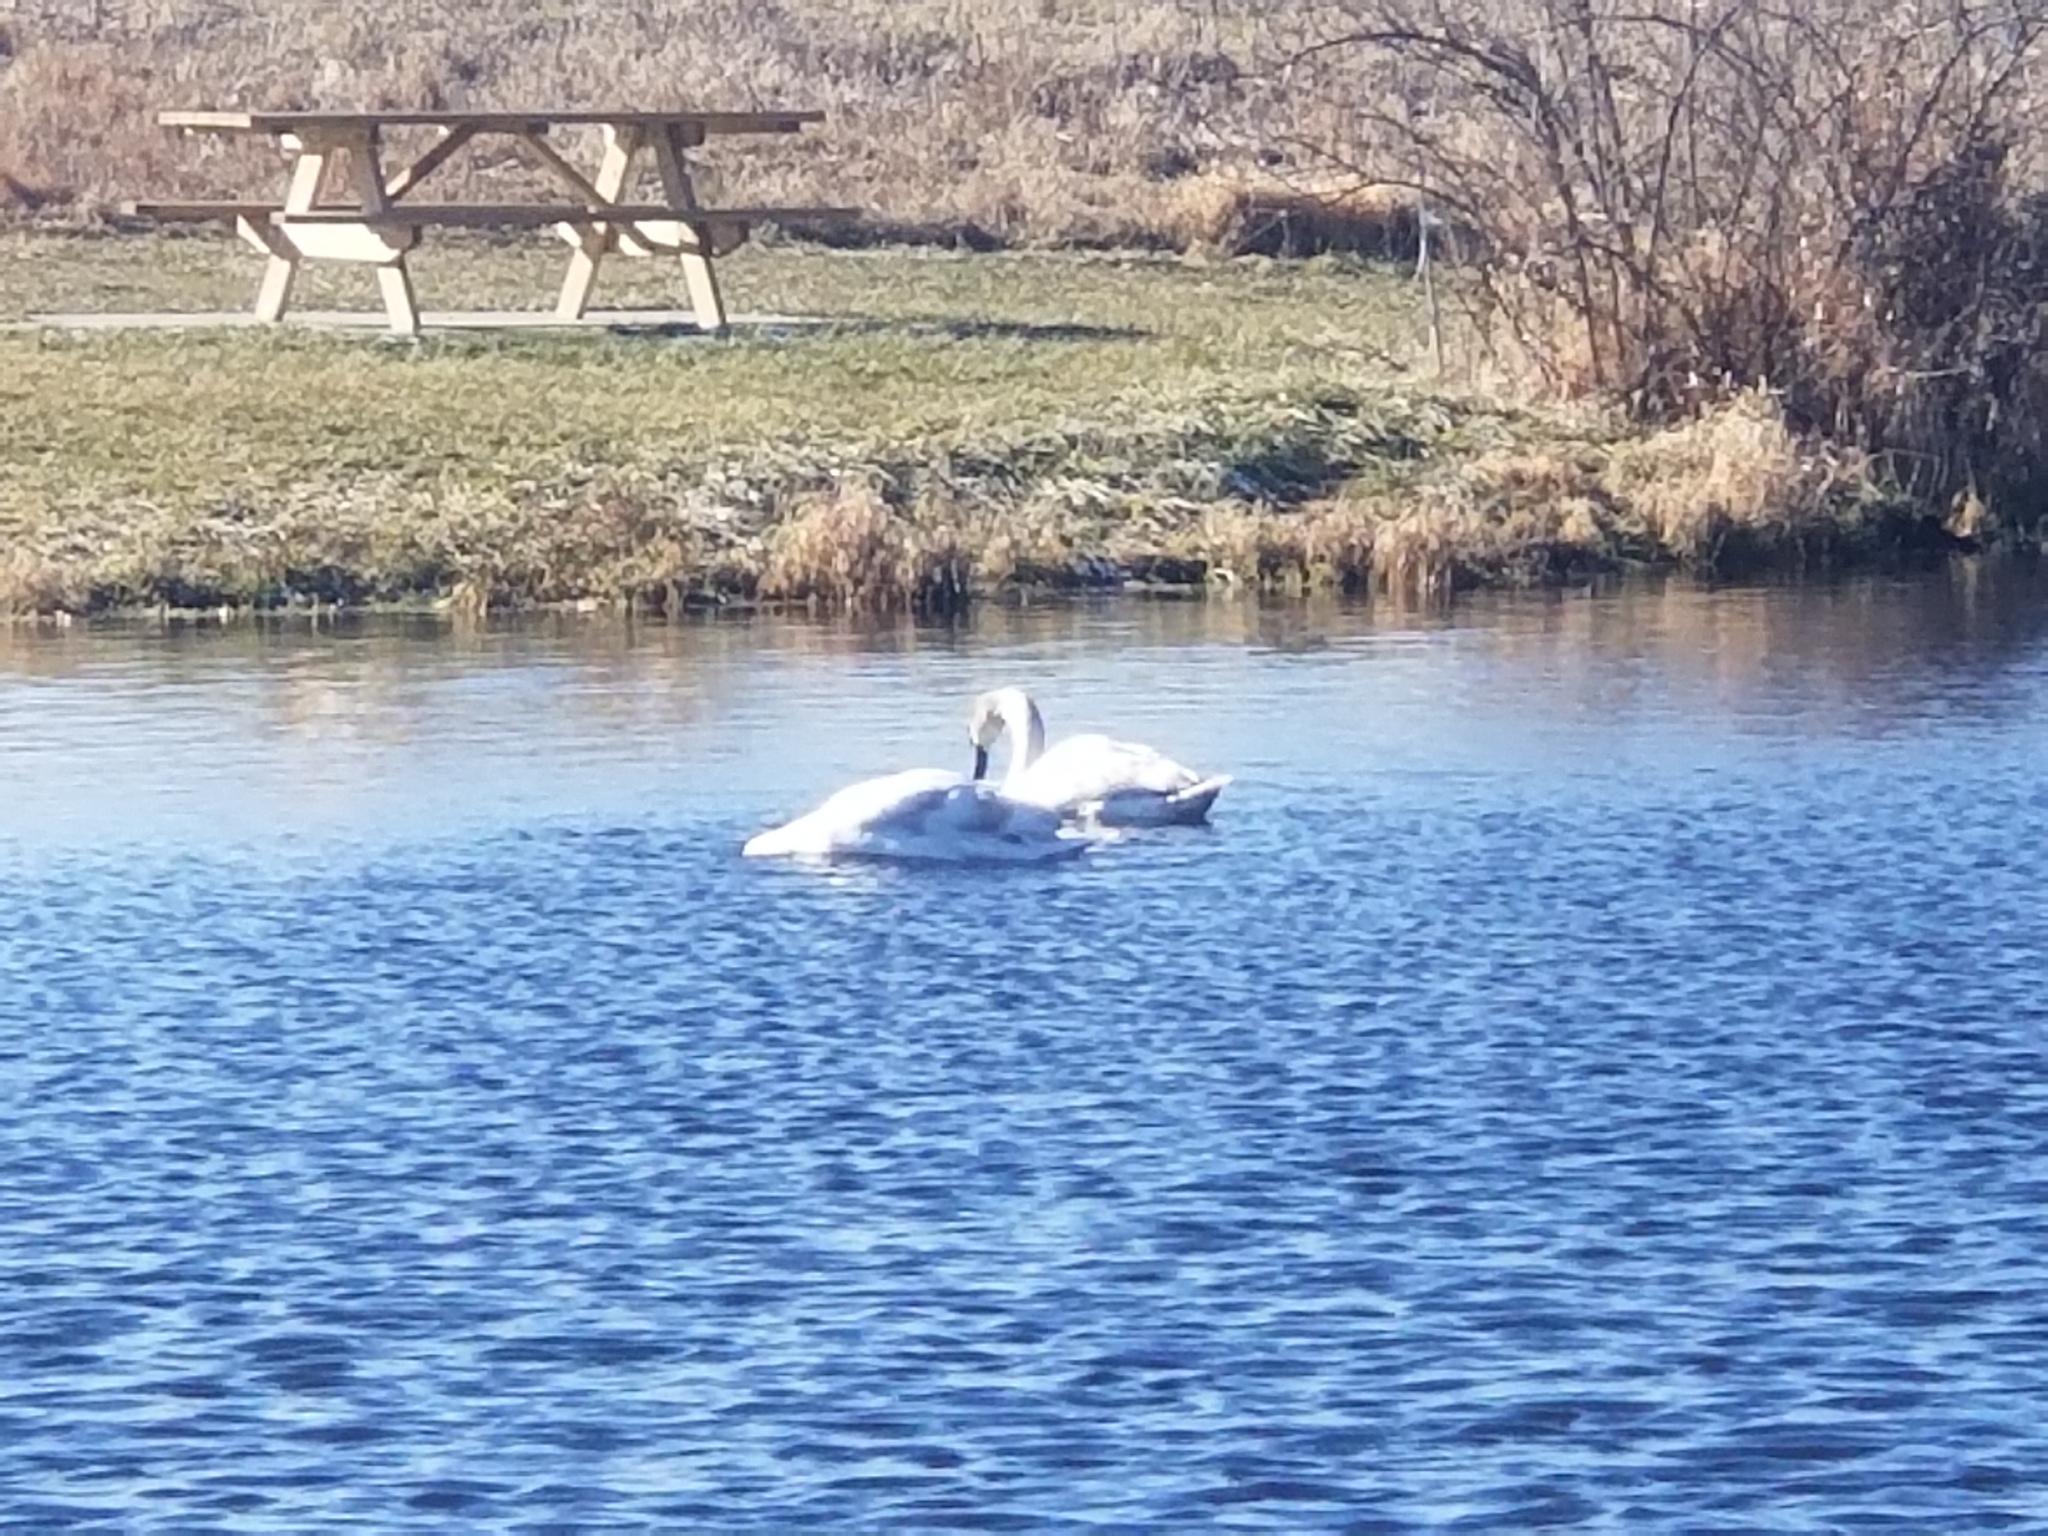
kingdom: Animalia
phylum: Chordata
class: Aves
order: Anseriformes
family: Anatidae
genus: Cygnus
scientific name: Cygnus olor
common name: Mute swan
